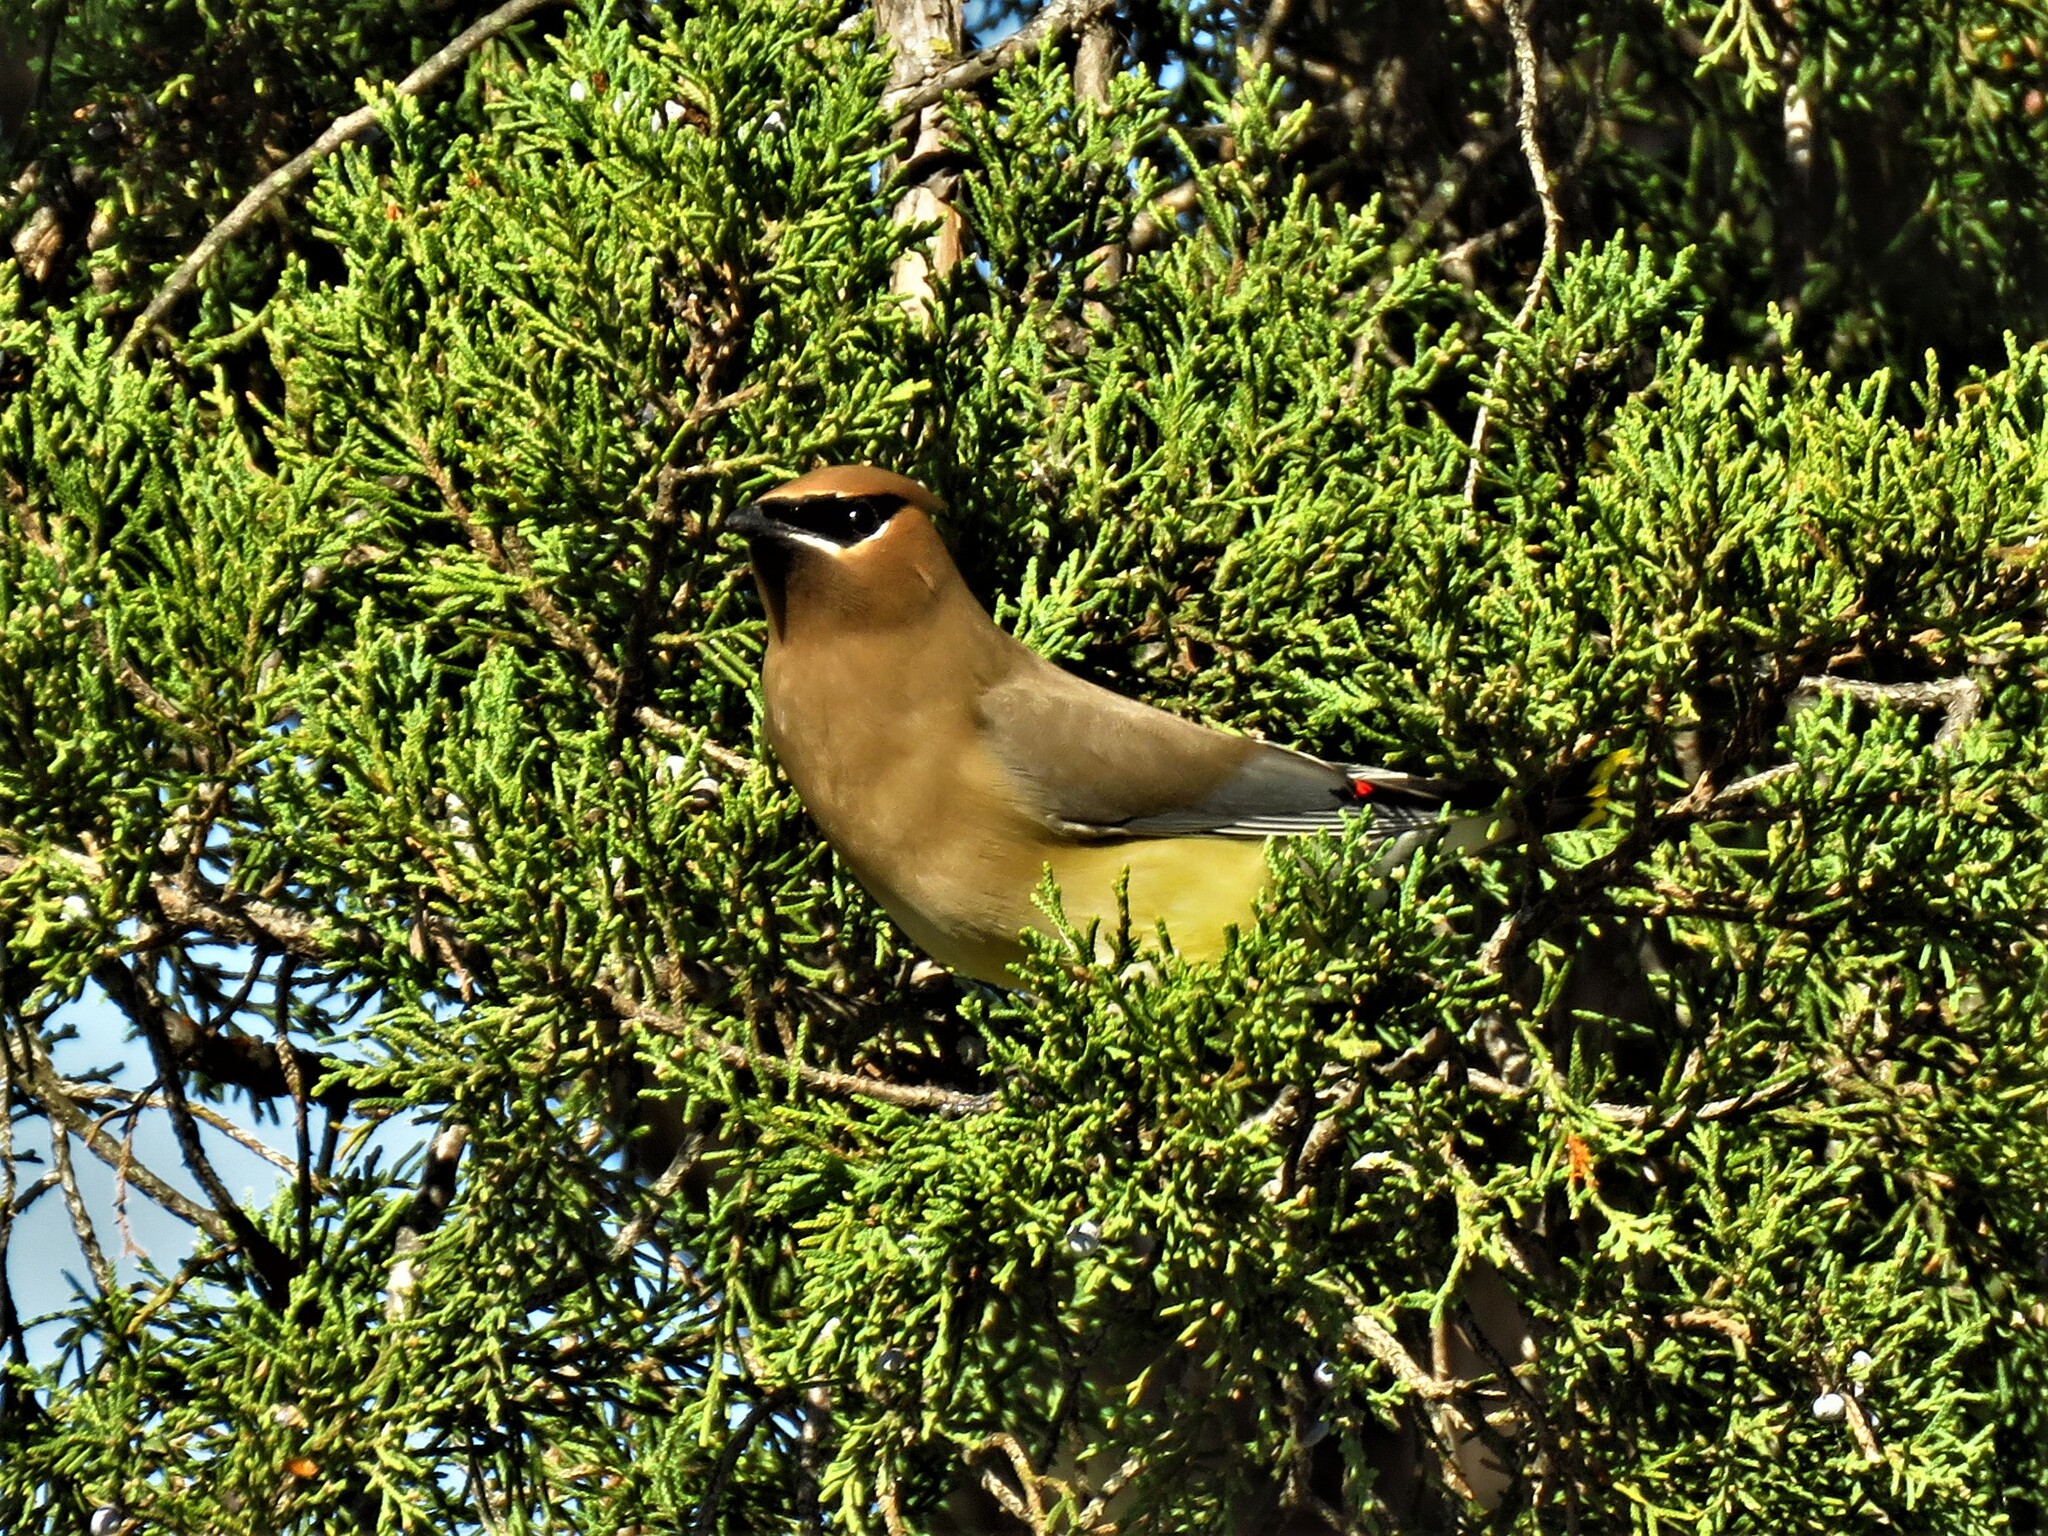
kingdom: Animalia
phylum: Chordata
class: Aves
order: Passeriformes
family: Bombycillidae
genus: Bombycilla
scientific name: Bombycilla cedrorum
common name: Cedar waxwing
